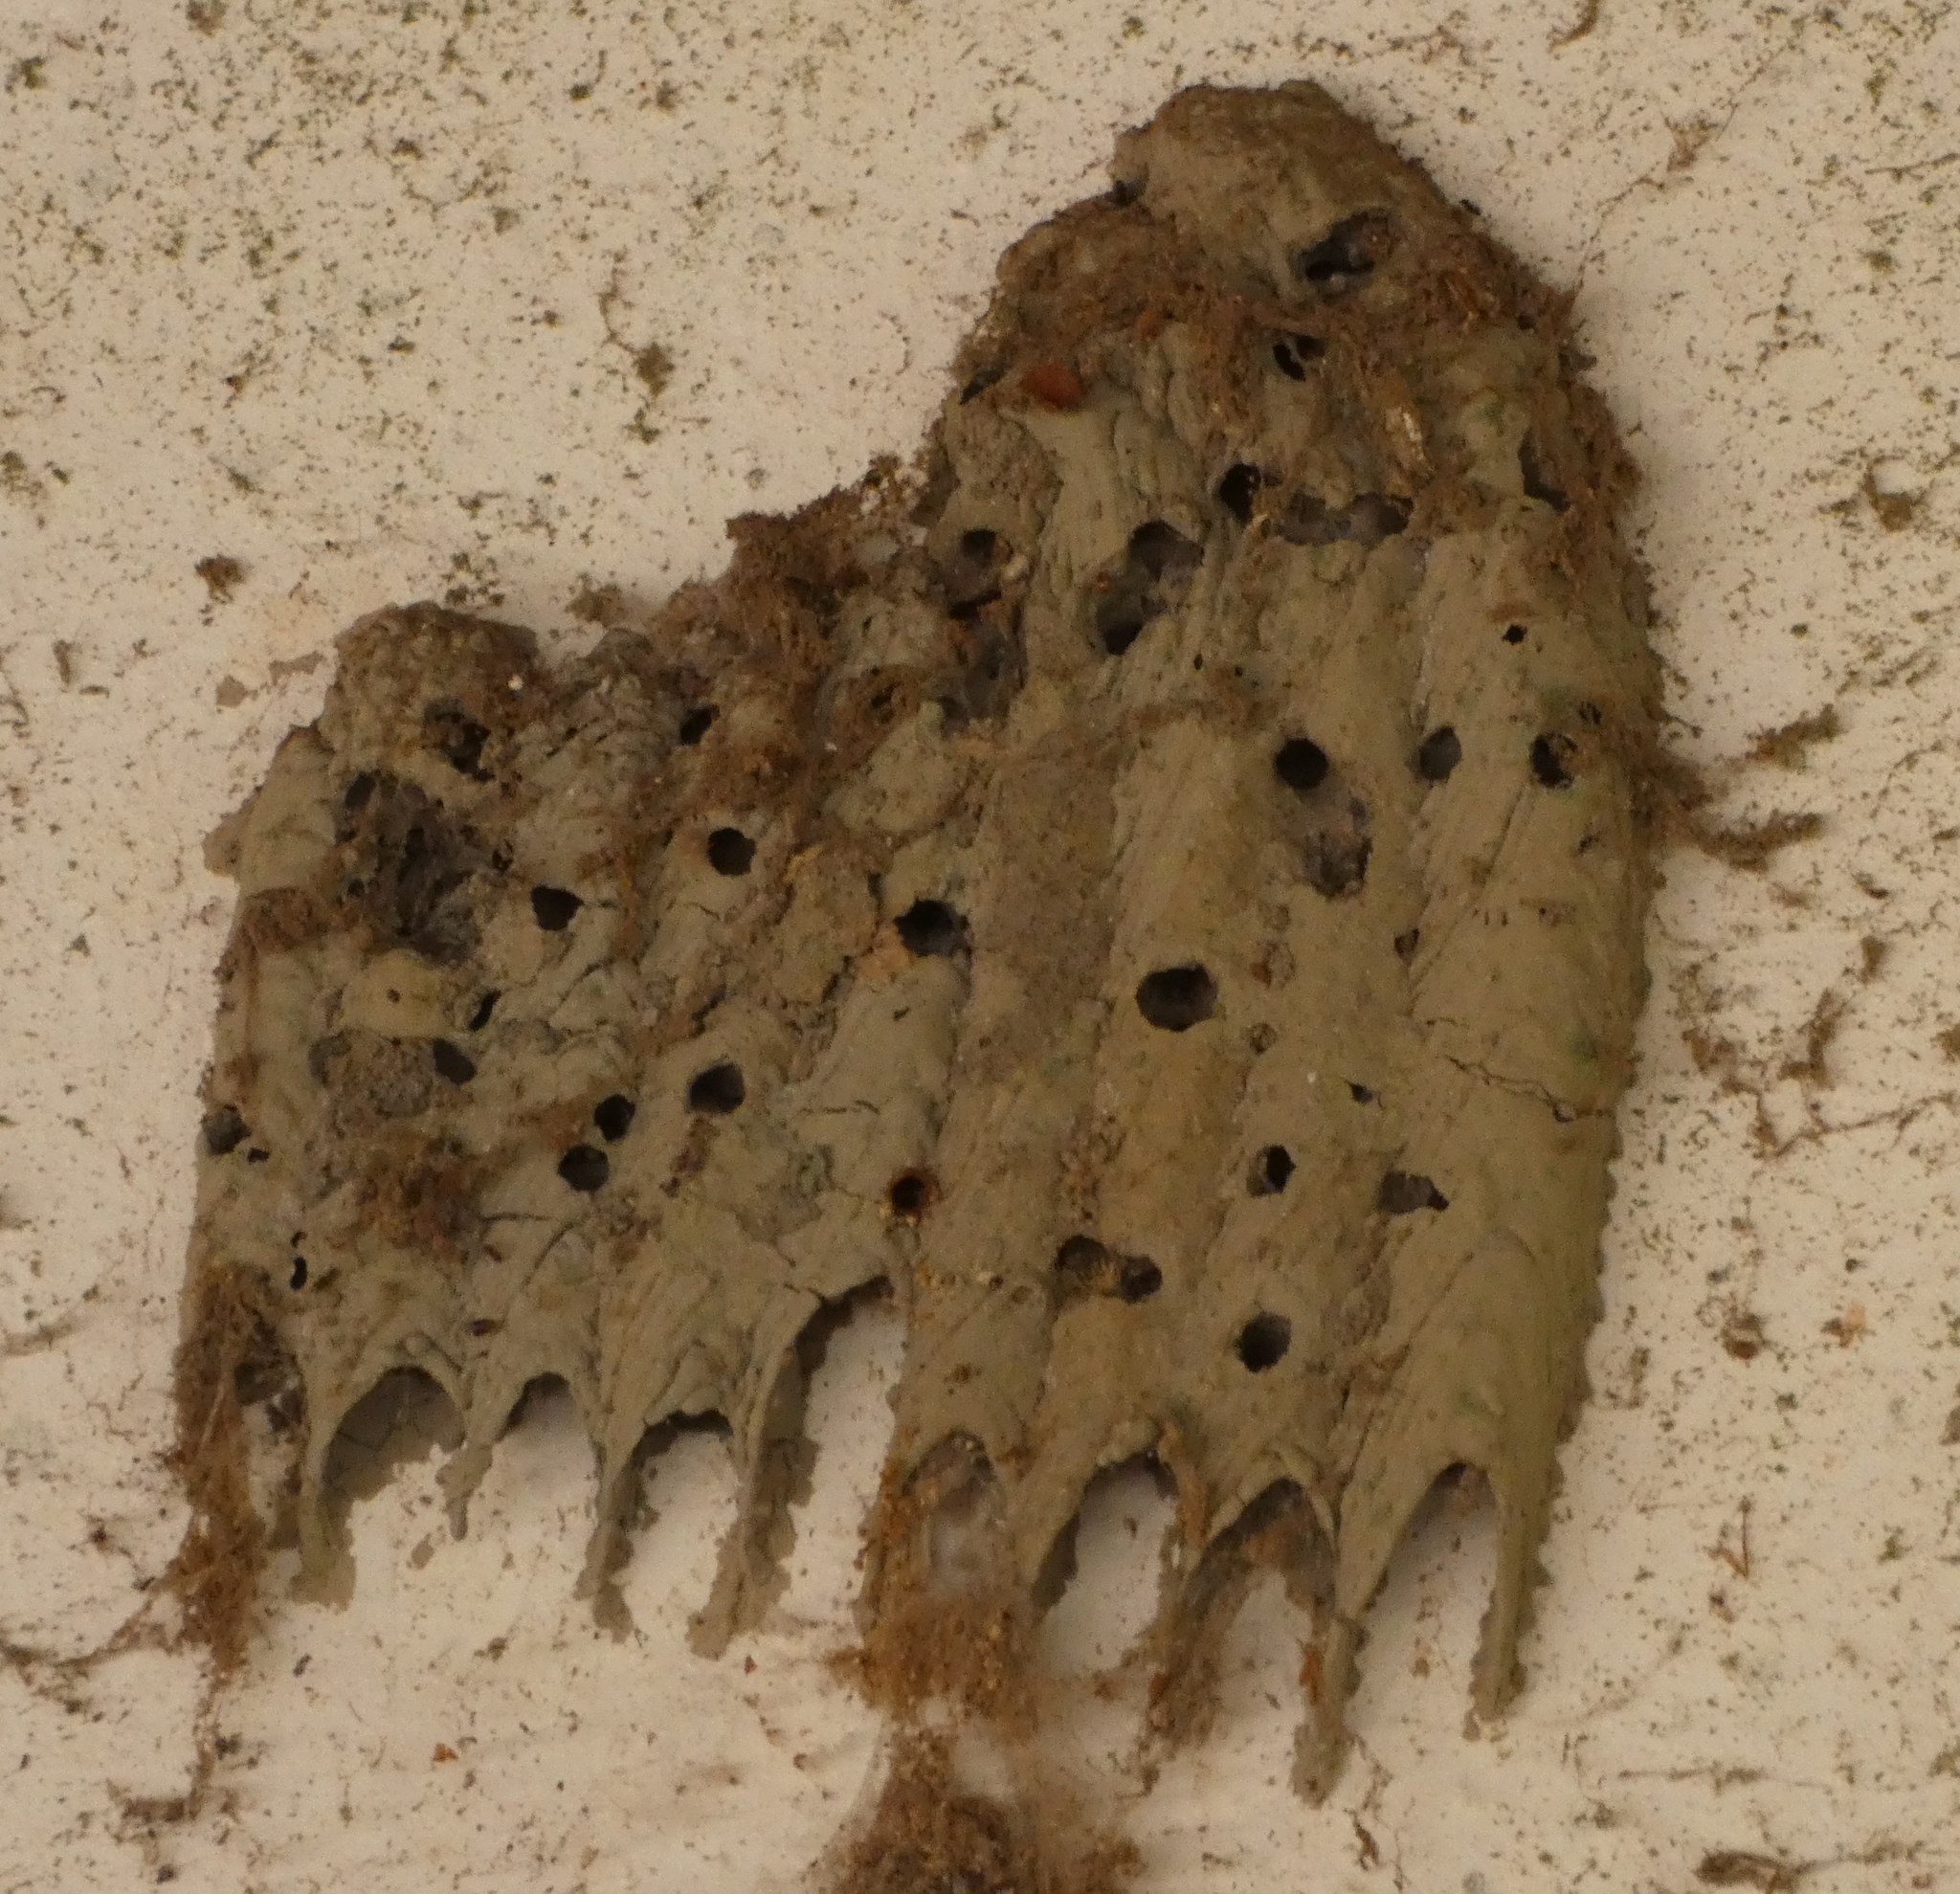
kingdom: Animalia
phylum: Arthropoda
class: Insecta
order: Hymenoptera
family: Crabronidae
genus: Trypoxylon
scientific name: Trypoxylon albitarse
